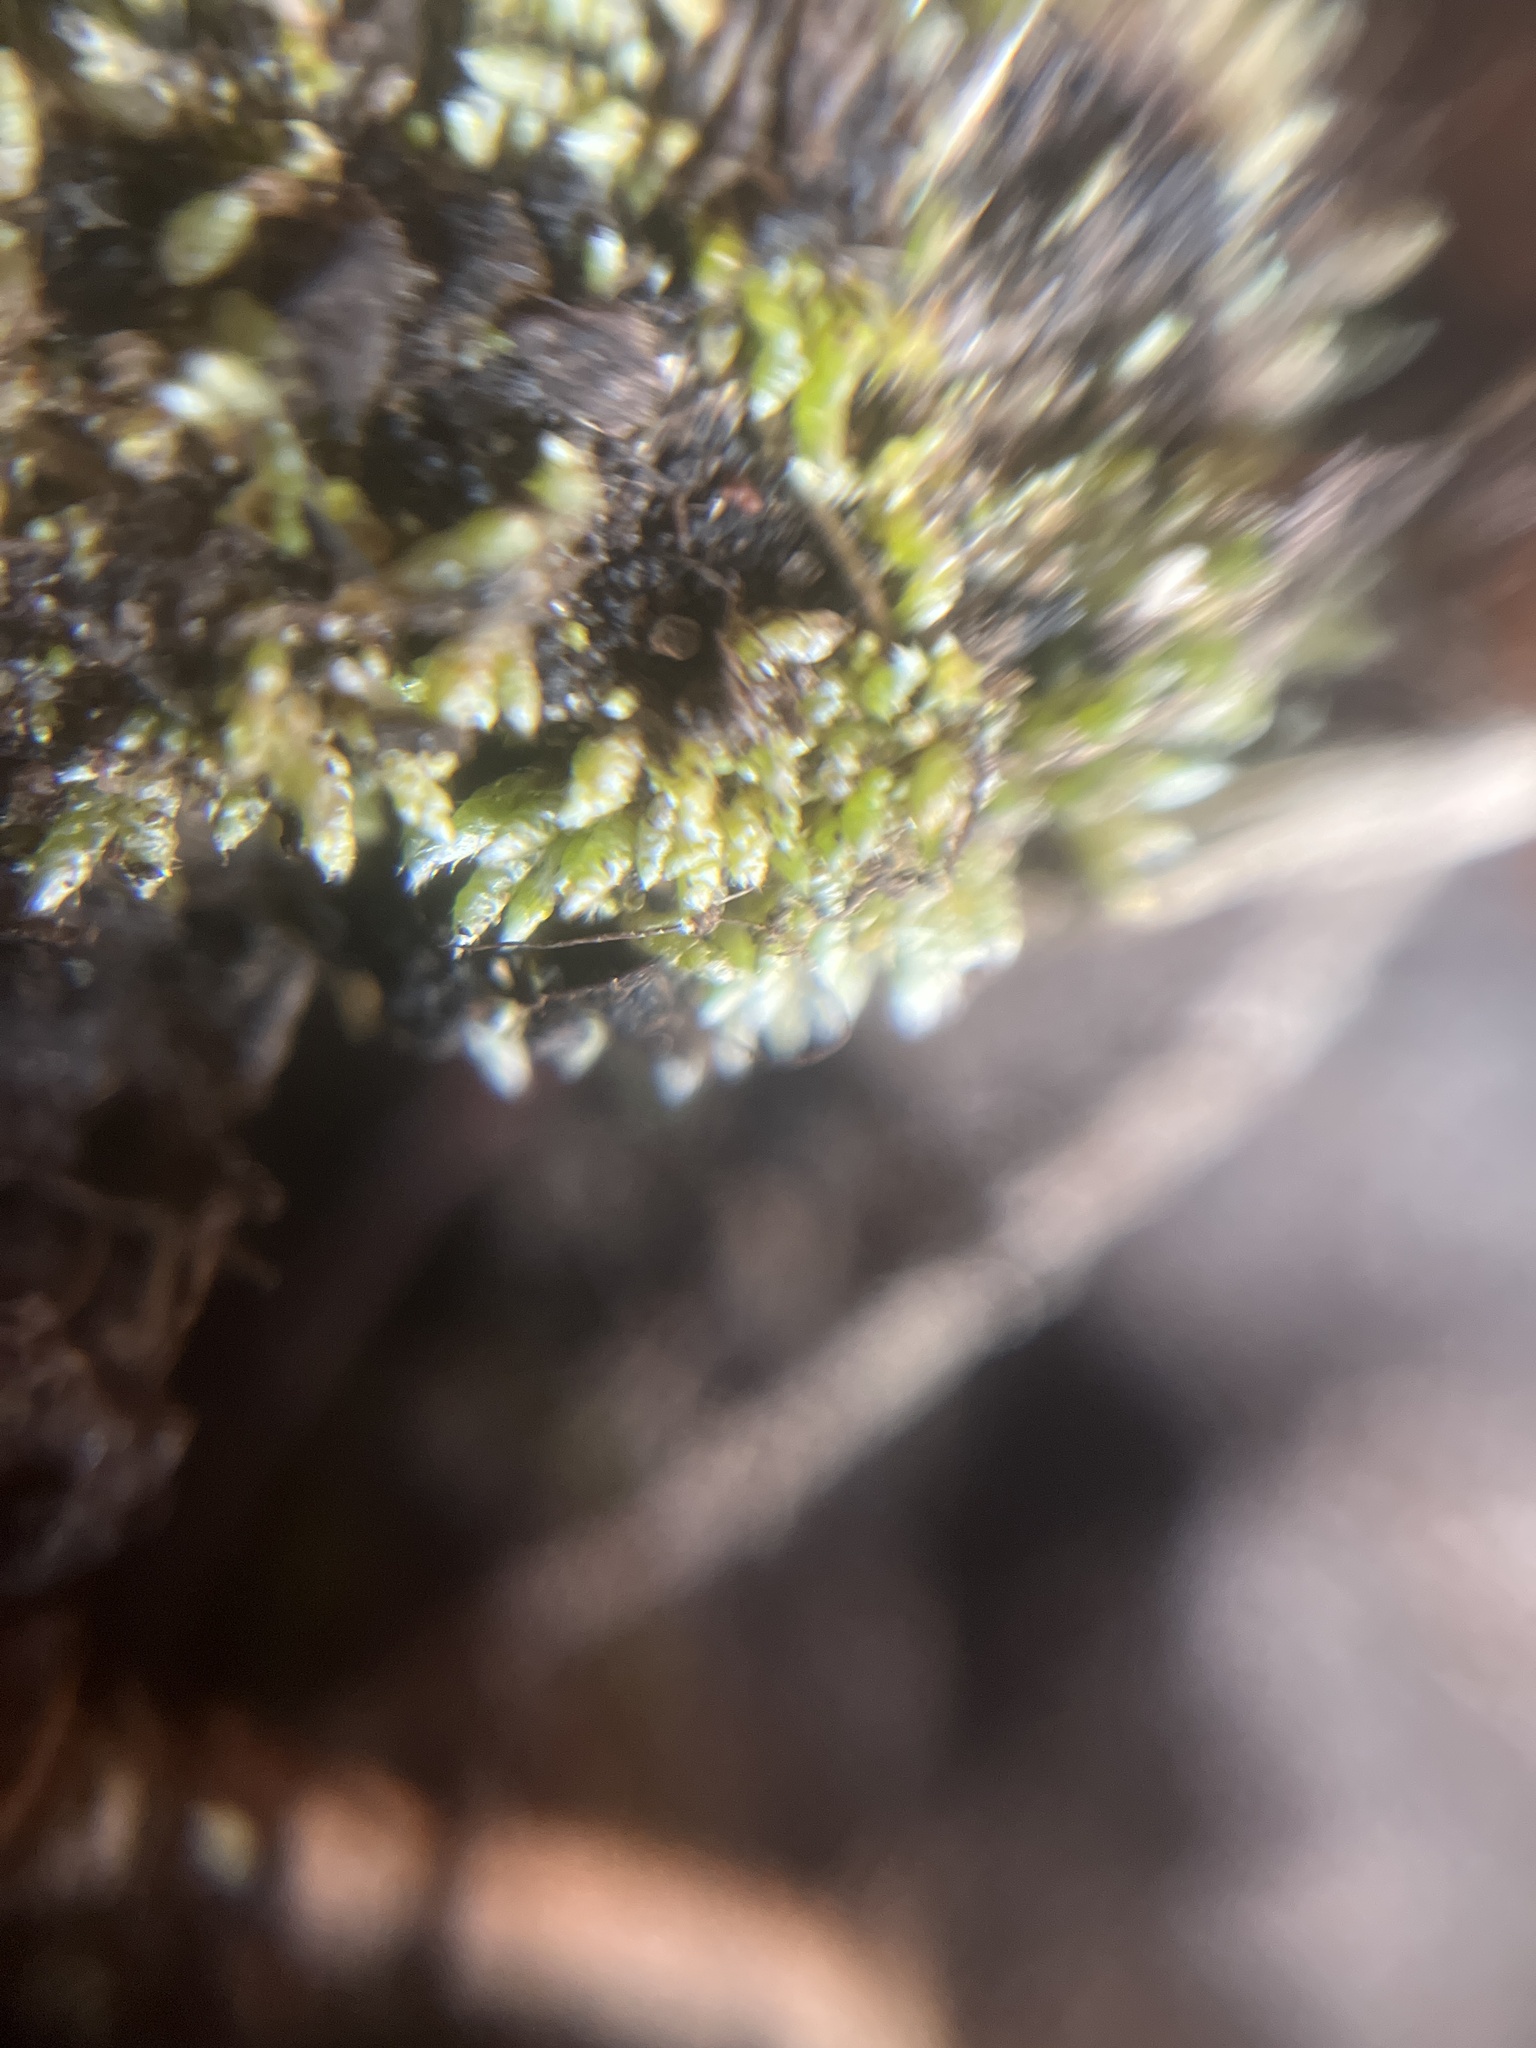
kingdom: Plantae
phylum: Bryophyta
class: Bryopsida
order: Bryales
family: Bryaceae
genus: Bryum
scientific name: Bryum argenteum
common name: Silver-moss
